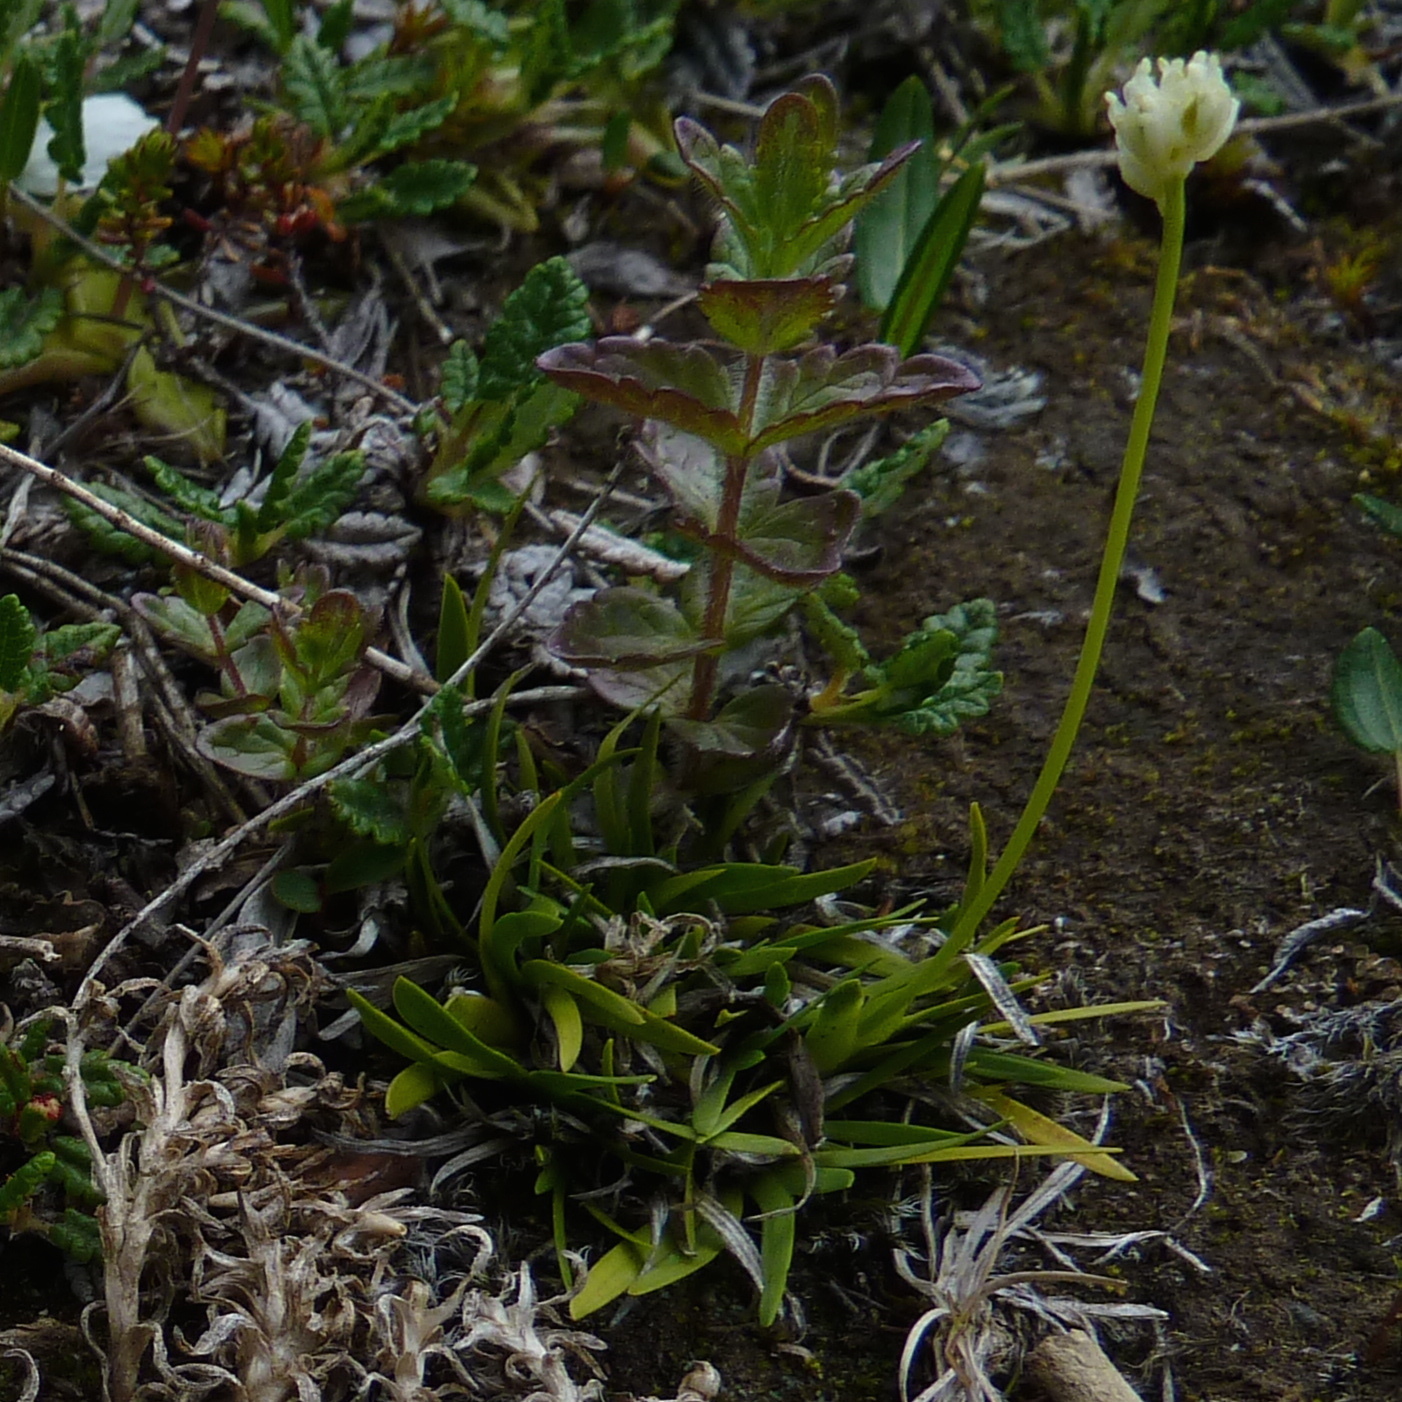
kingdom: Plantae
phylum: Tracheophyta
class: Liliopsida
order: Alismatales
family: Tofieldiaceae
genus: Tofieldia
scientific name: Tofieldia pusilla
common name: Scottish false asphodel
